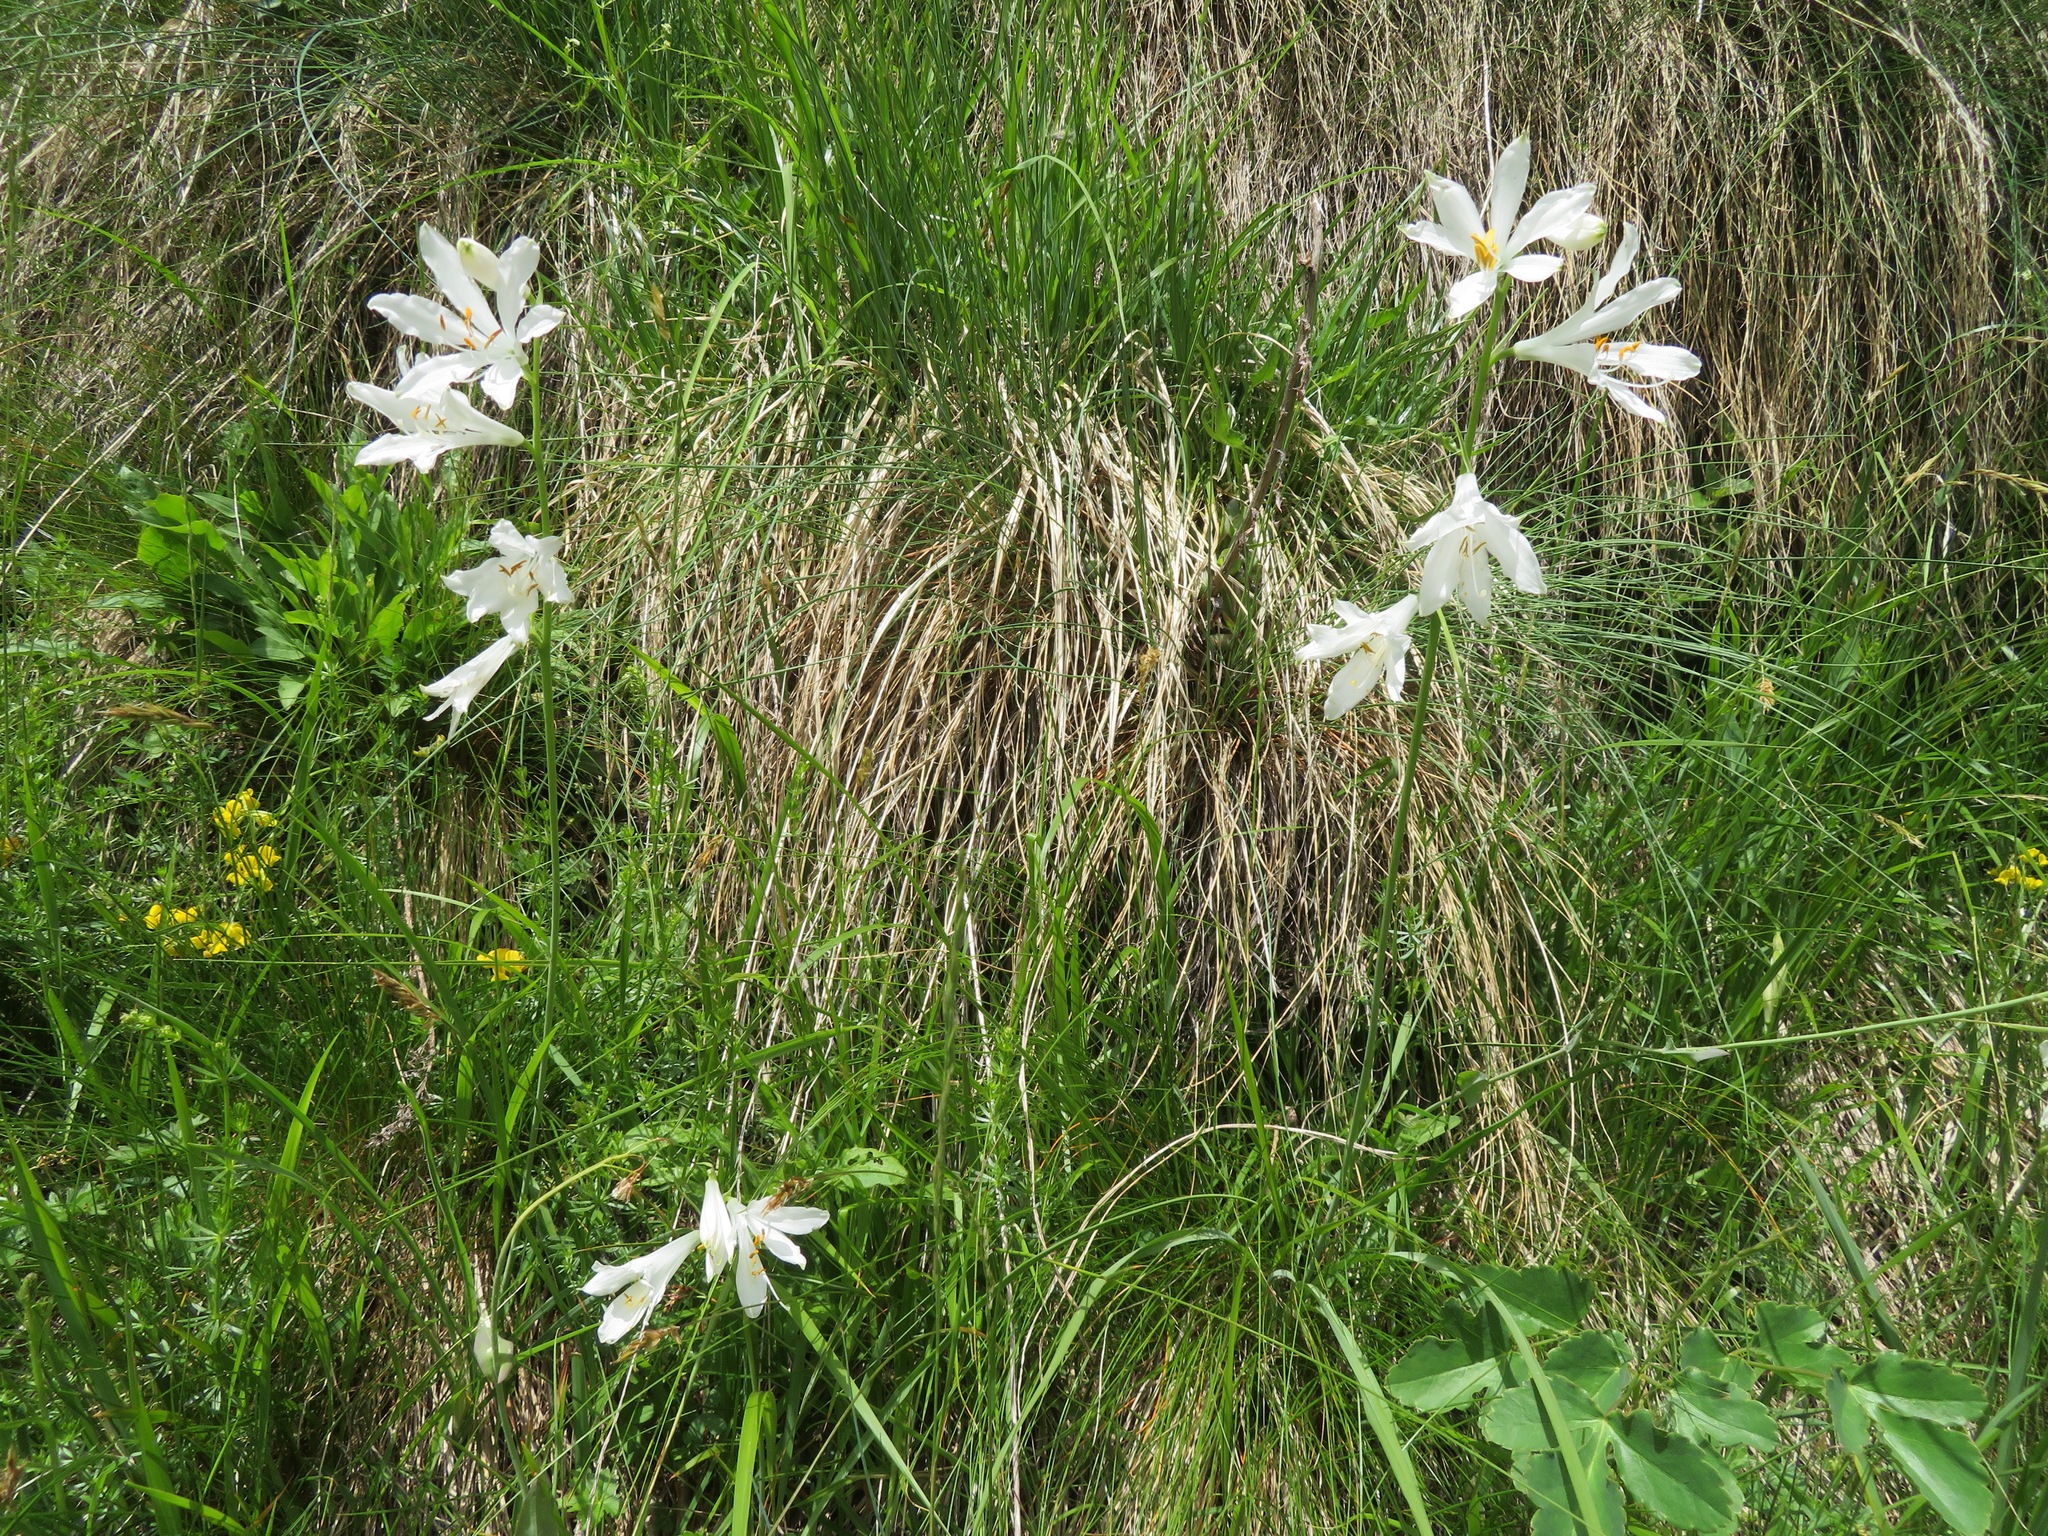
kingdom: Plantae
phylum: Tracheophyta
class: Liliopsida
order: Asparagales
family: Asparagaceae
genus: Paradisea
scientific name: Paradisea liliastrum
